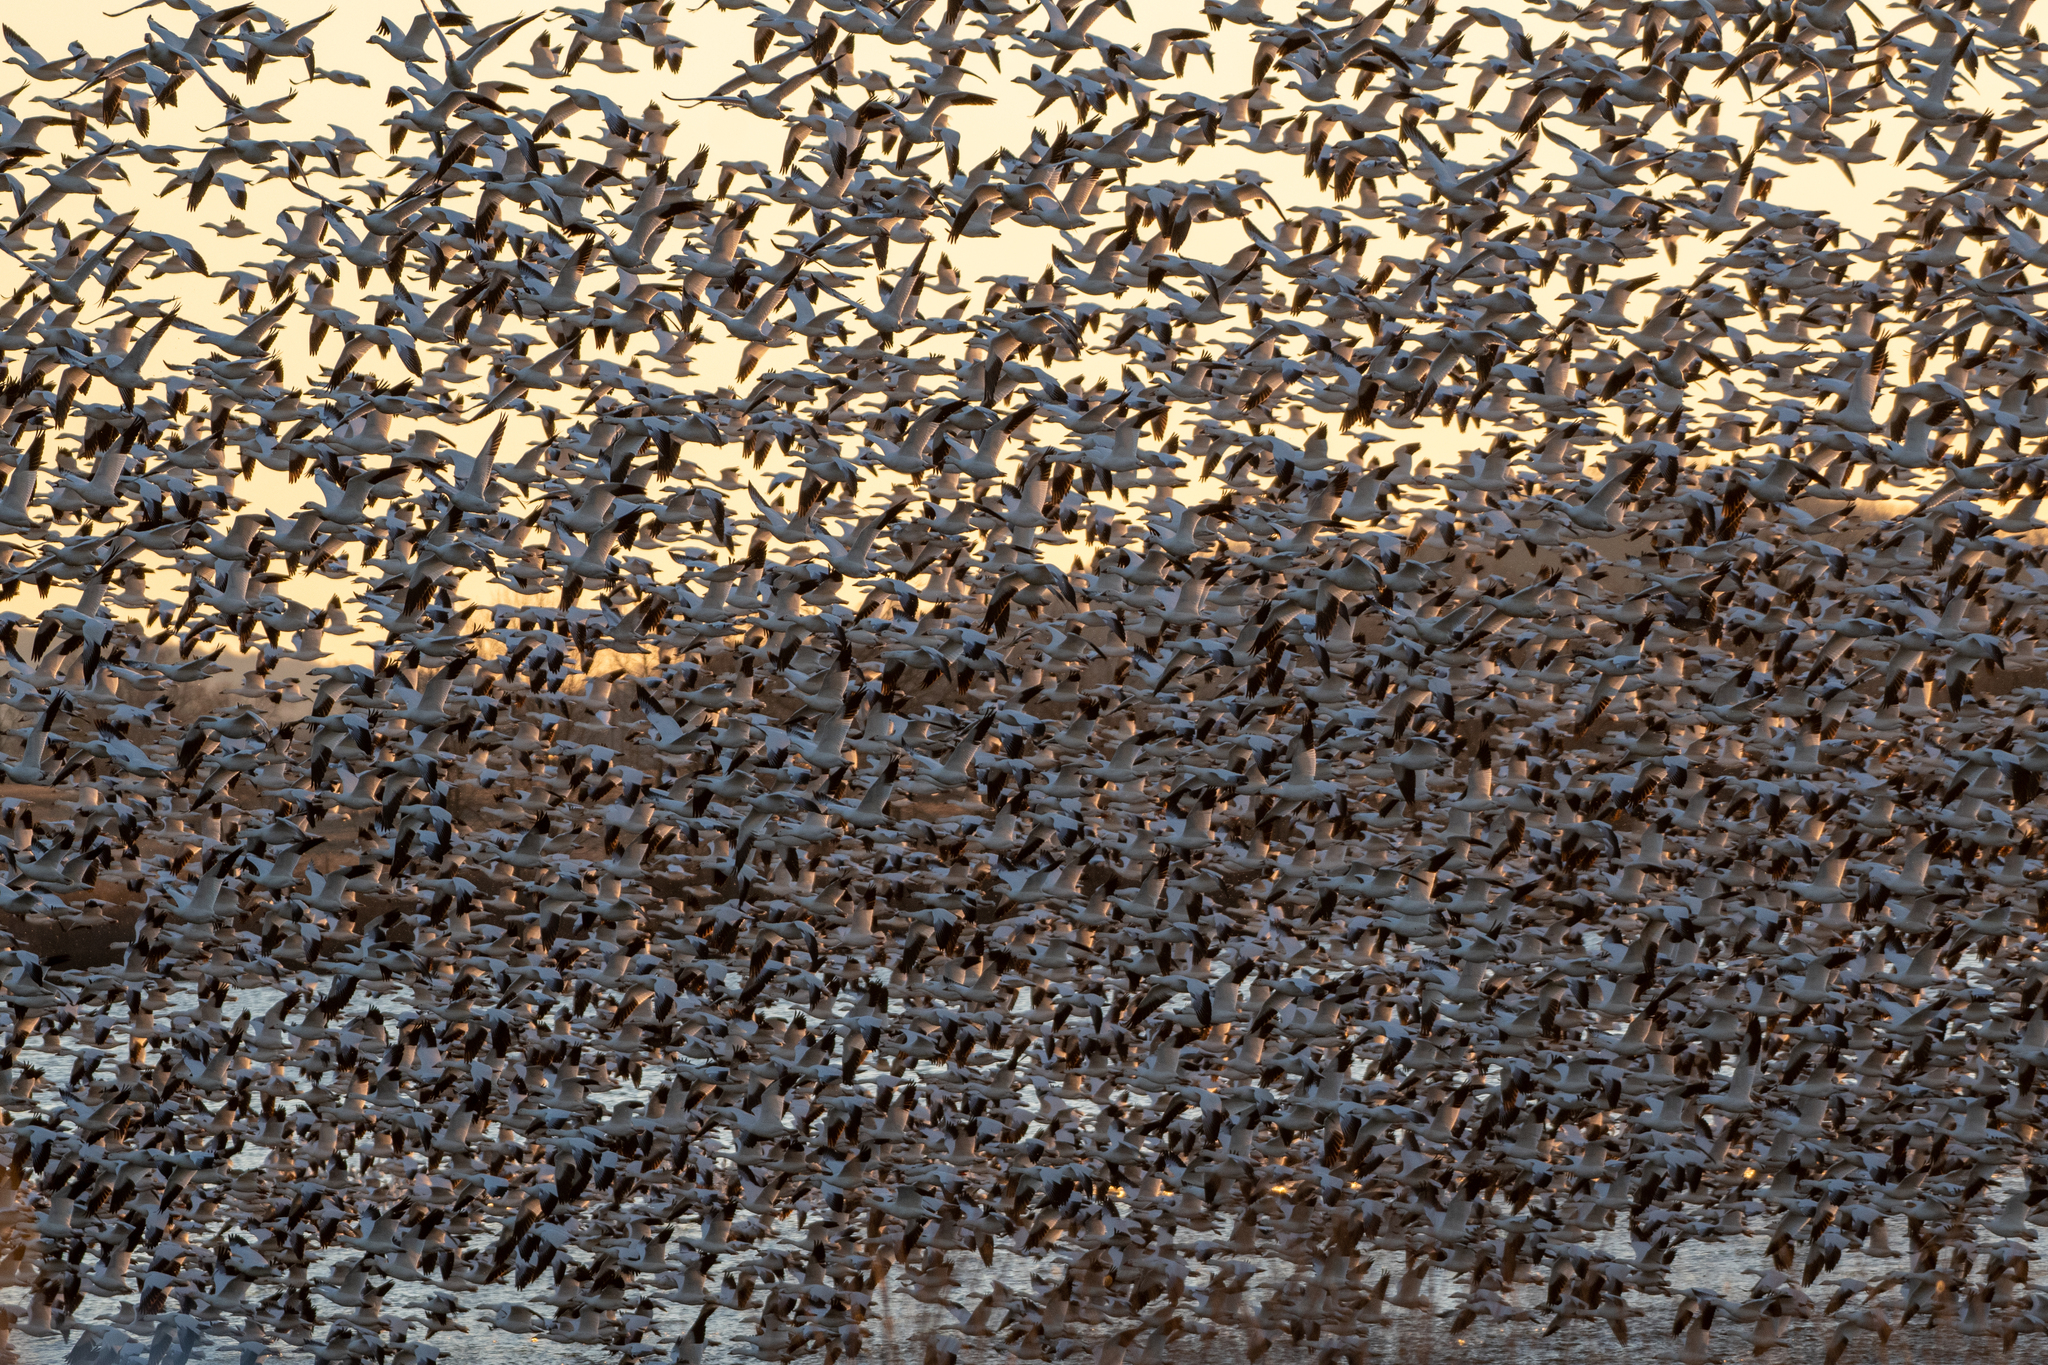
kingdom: Animalia
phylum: Chordata
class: Aves
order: Anseriformes
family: Anatidae
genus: Anser
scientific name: Anser caerulescens
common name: Snow goose
